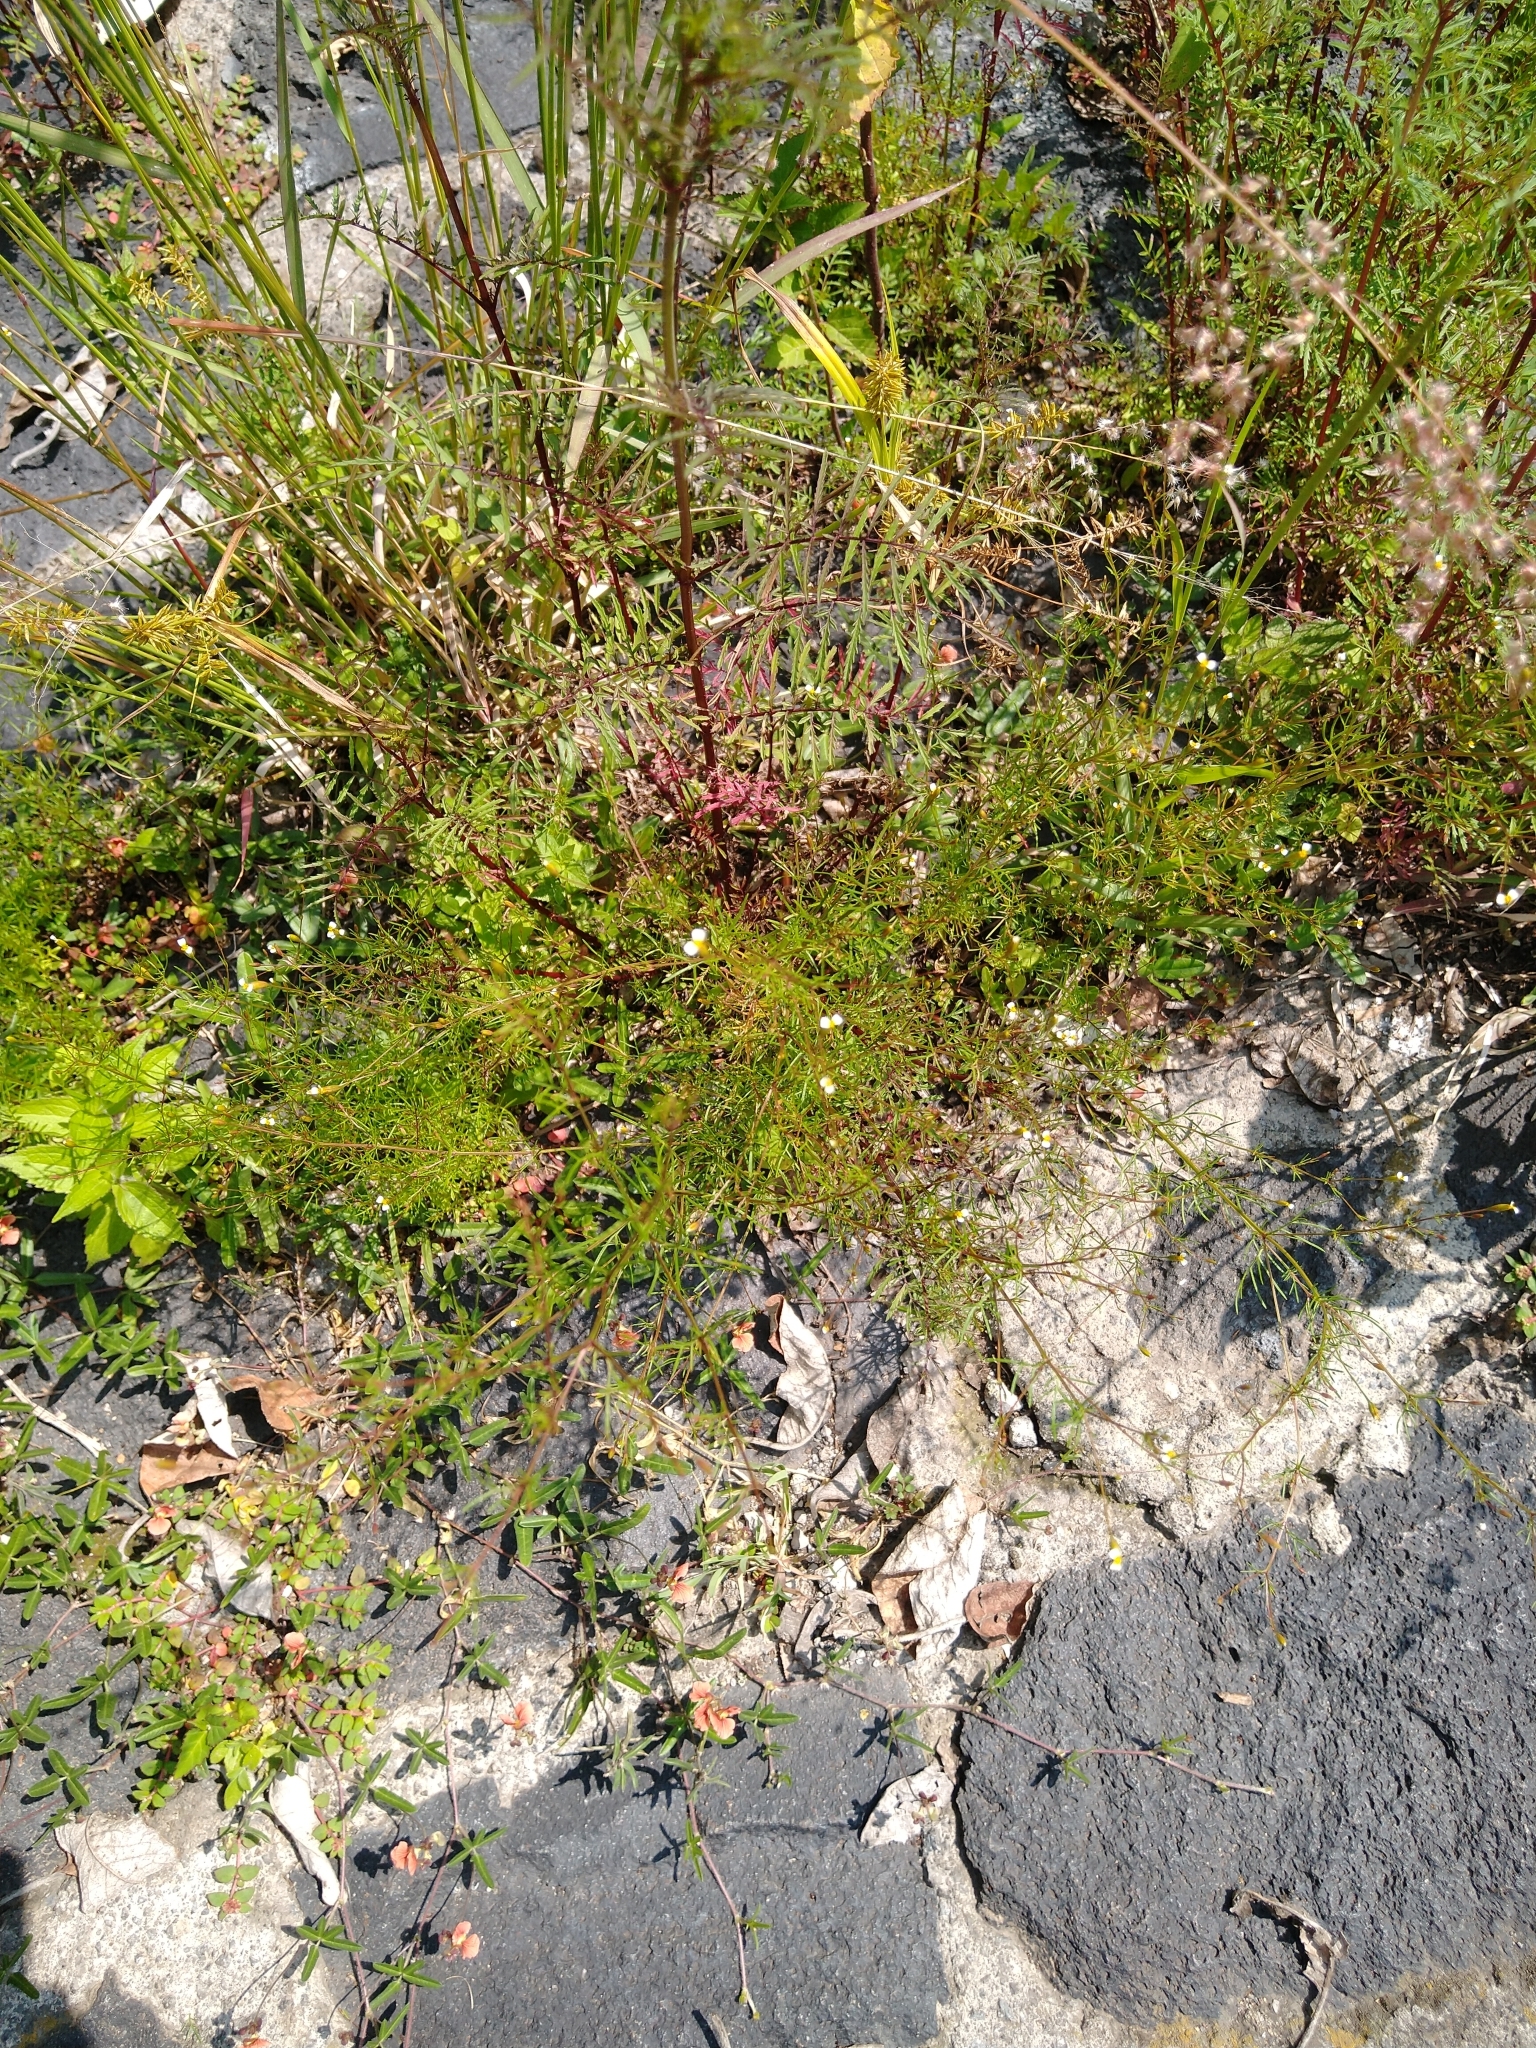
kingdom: Plantae
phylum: Tracheophyta
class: Magnoliopsida
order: Asterales
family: Asteraceae
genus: Tagetes
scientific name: Tagetes micrantha
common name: Licorice marigold
